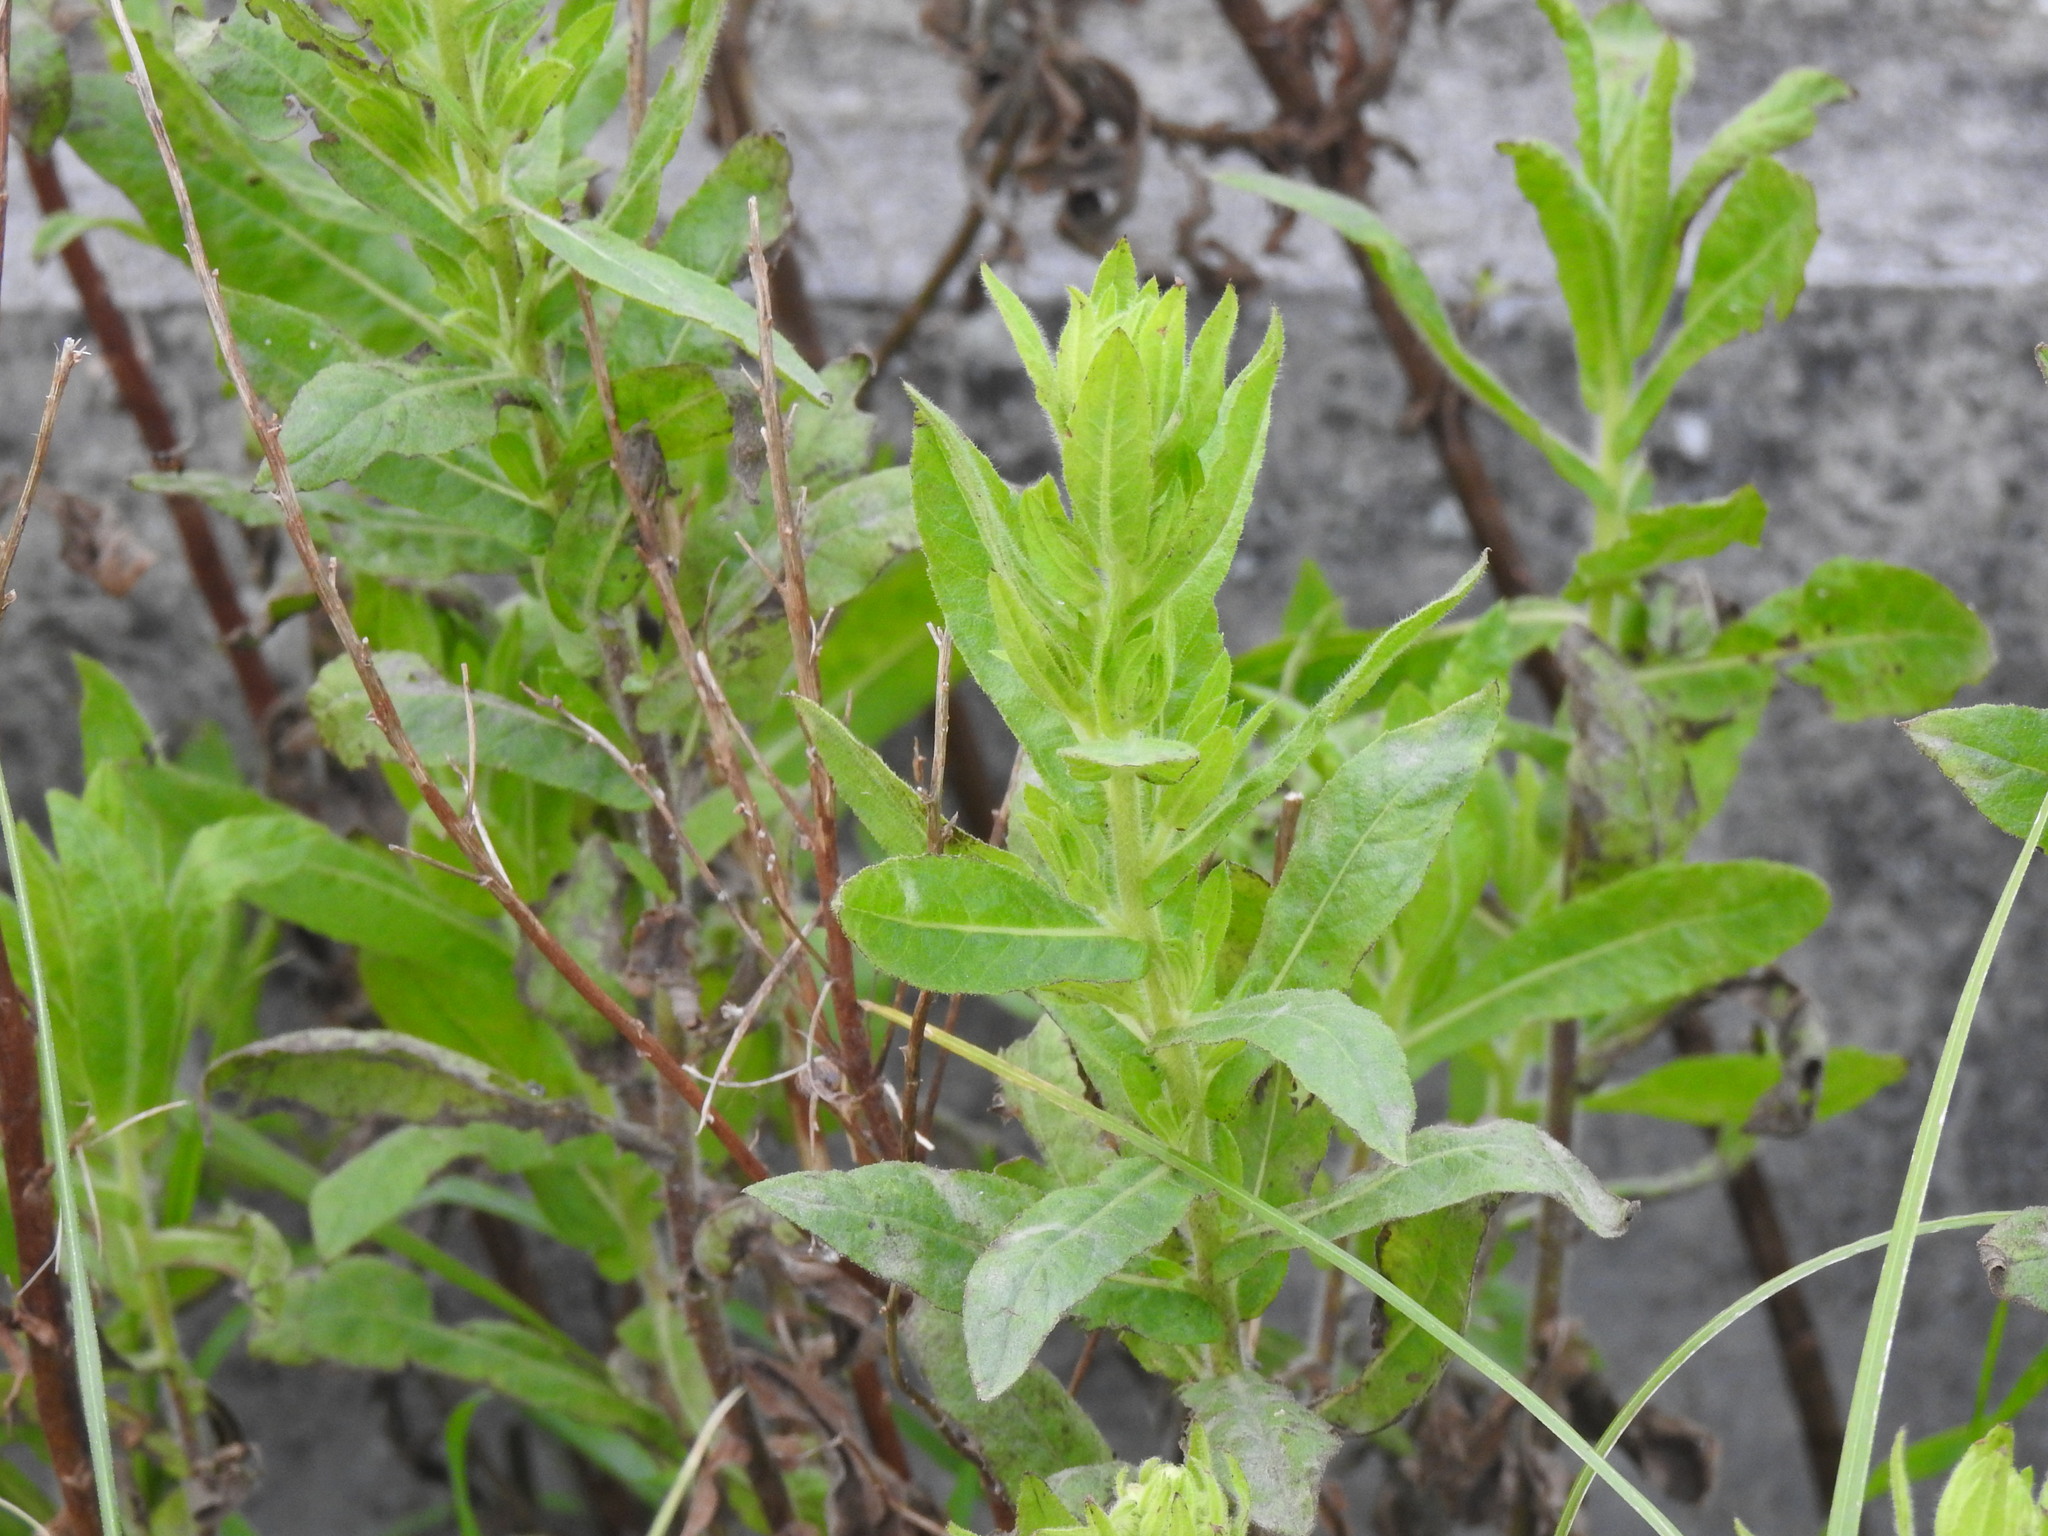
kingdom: Plantae
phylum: Tracheophyta
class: Magnoliopsida
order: Asterales
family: Asteraceae
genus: Dittrichia
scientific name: Dittrichia viscosa
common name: Woody fleabane
